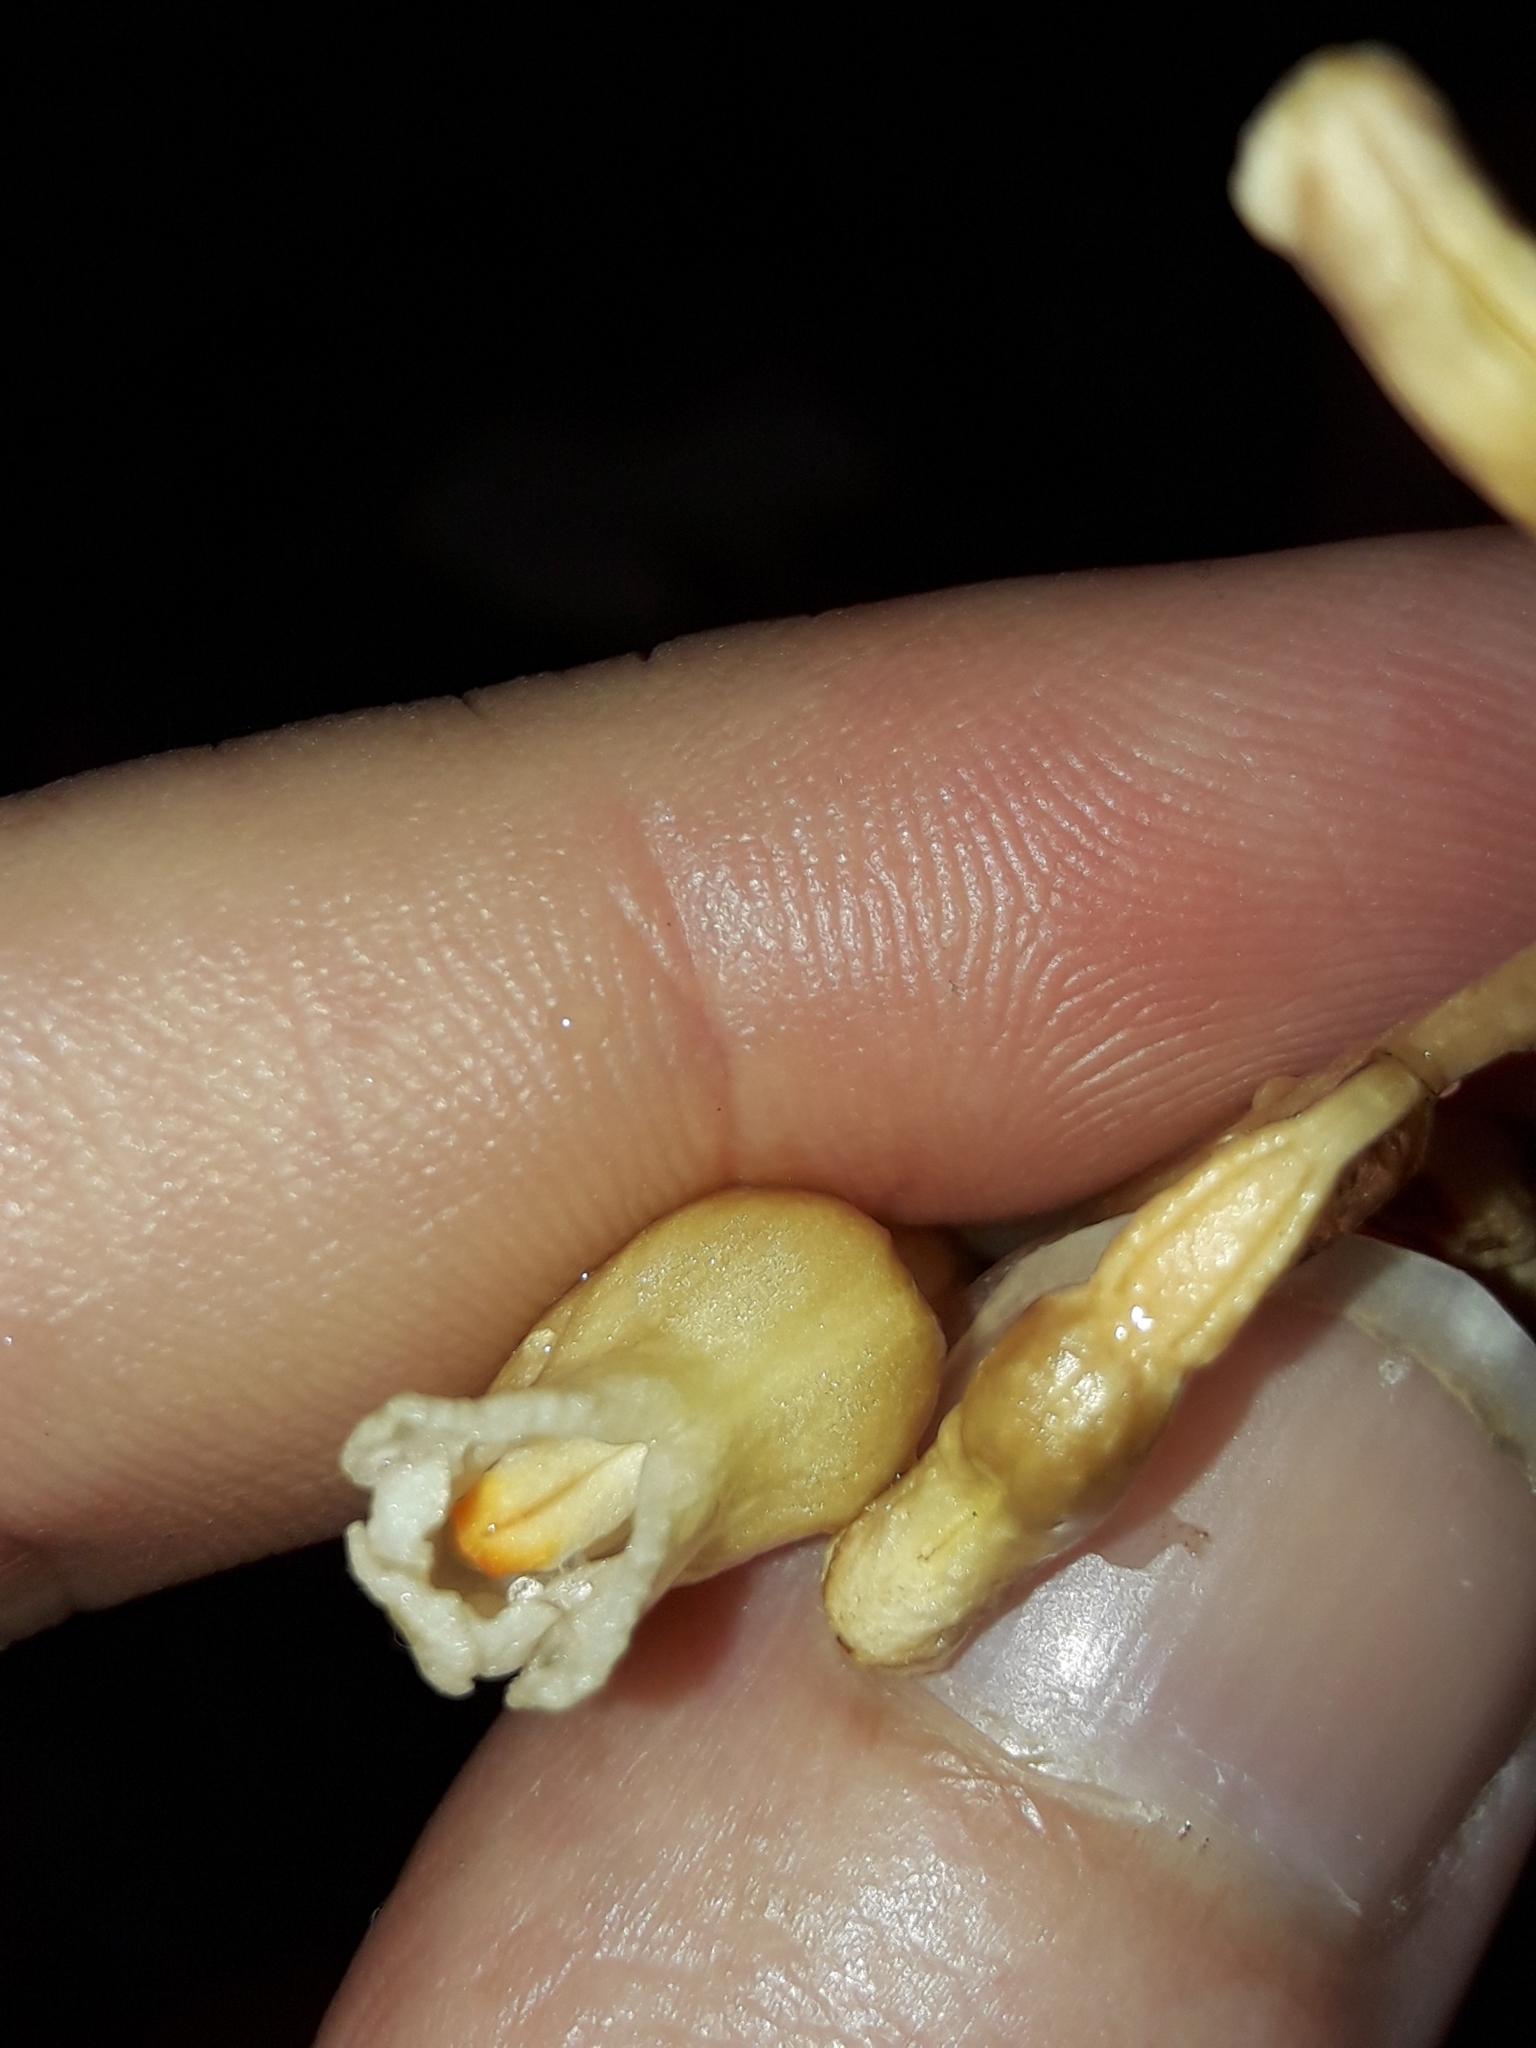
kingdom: Plantae
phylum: Tracheophyta
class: Liliopsida
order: Asparagales
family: Orchidaceae
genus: Gastrodia
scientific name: Gastrodia procera
